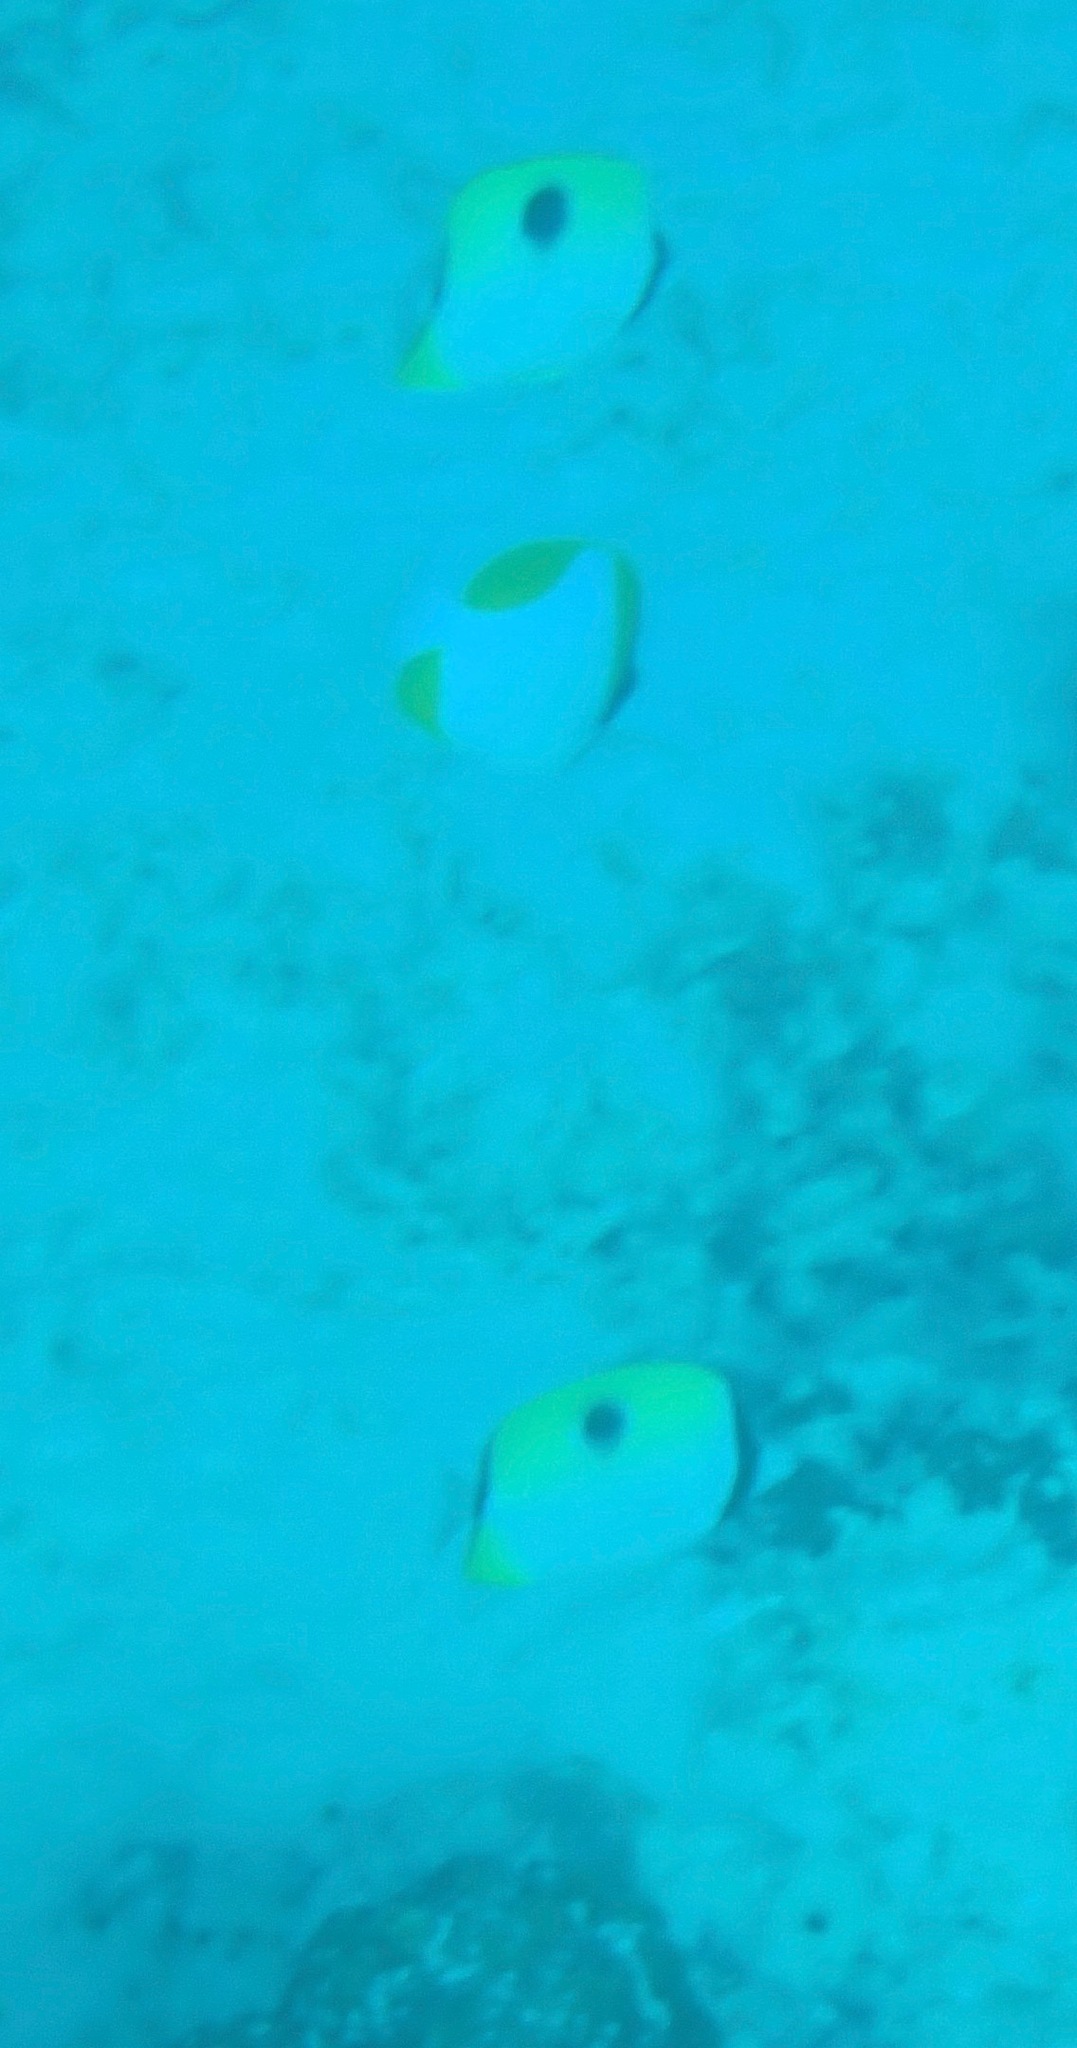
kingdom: Animalia
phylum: Chordata
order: Perciformes
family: Chaetodontidae
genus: Chaetodon
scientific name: Chaetodon unimaculatus
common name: Teardrop butterflyfish
